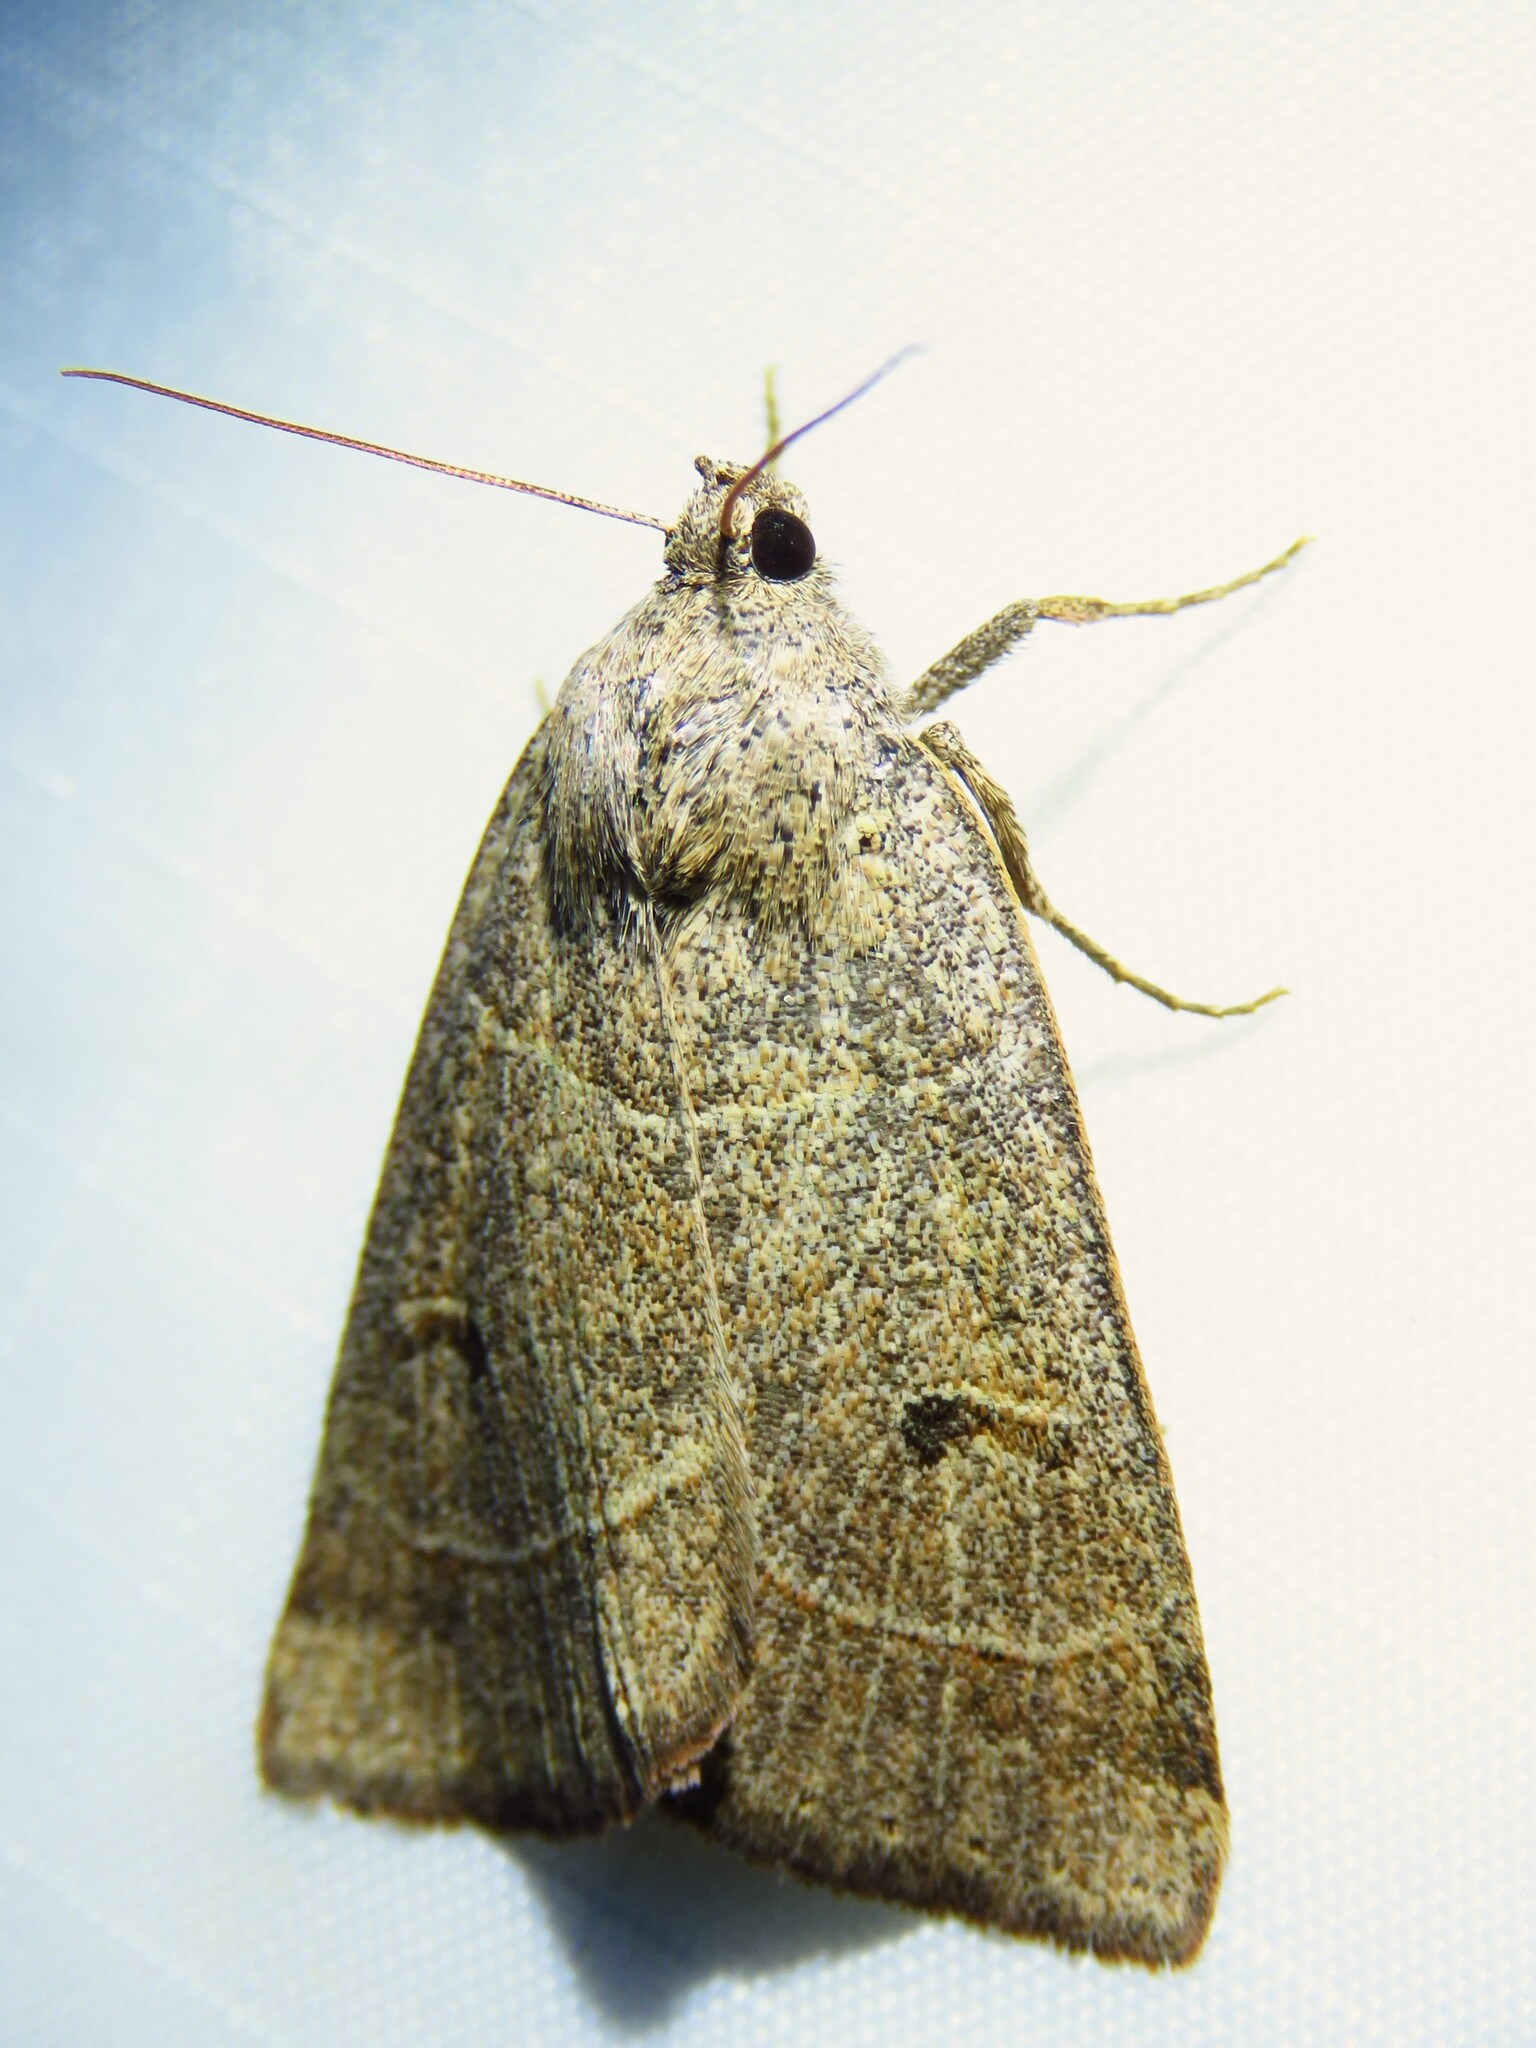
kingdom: Animalia
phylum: Arthropoda
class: Insecta
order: Lepidoptera
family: Erebidae
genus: Phoberia
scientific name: Phoberia atomaris
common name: Common oak moth
